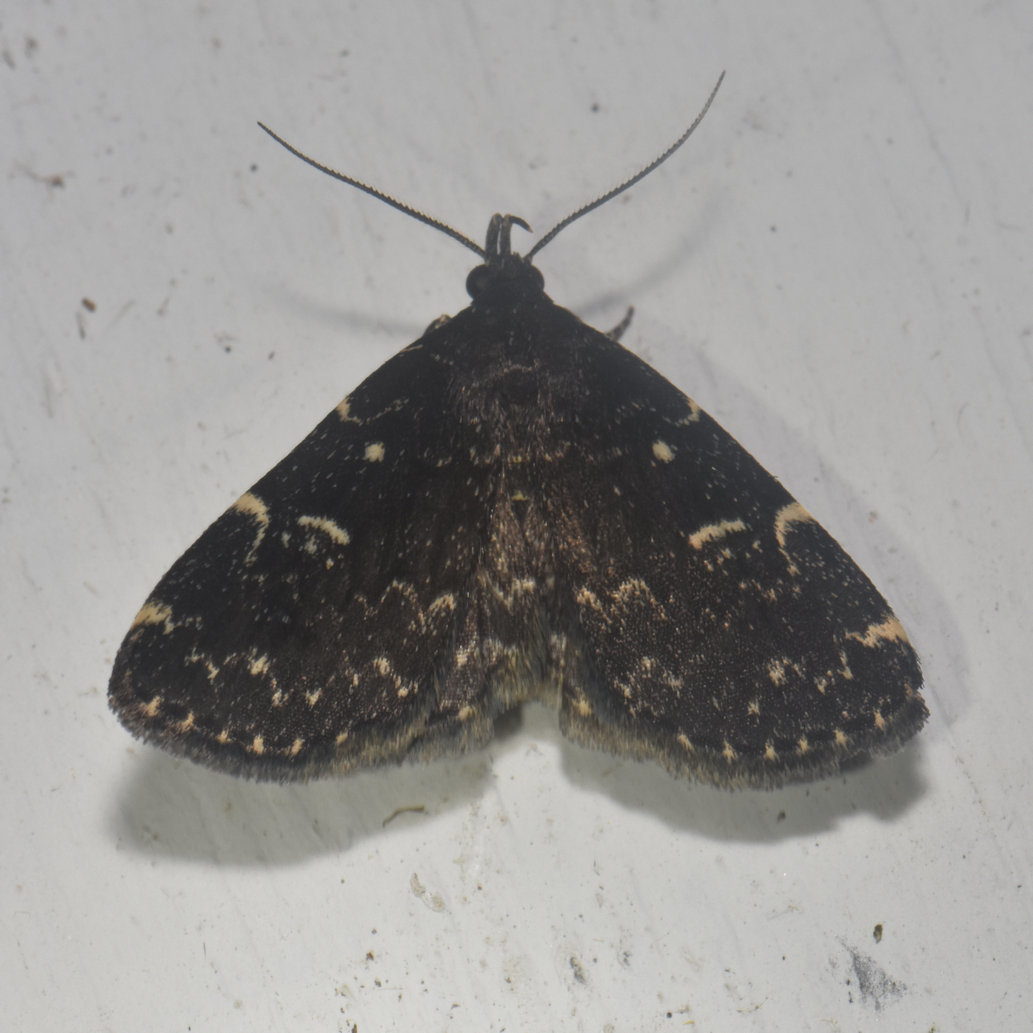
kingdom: Animalia
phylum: Arthropoda
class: Insecta
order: Lepidoptera
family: Erebidae
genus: Idia
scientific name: Idia scobialis
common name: Smoky idia moth
